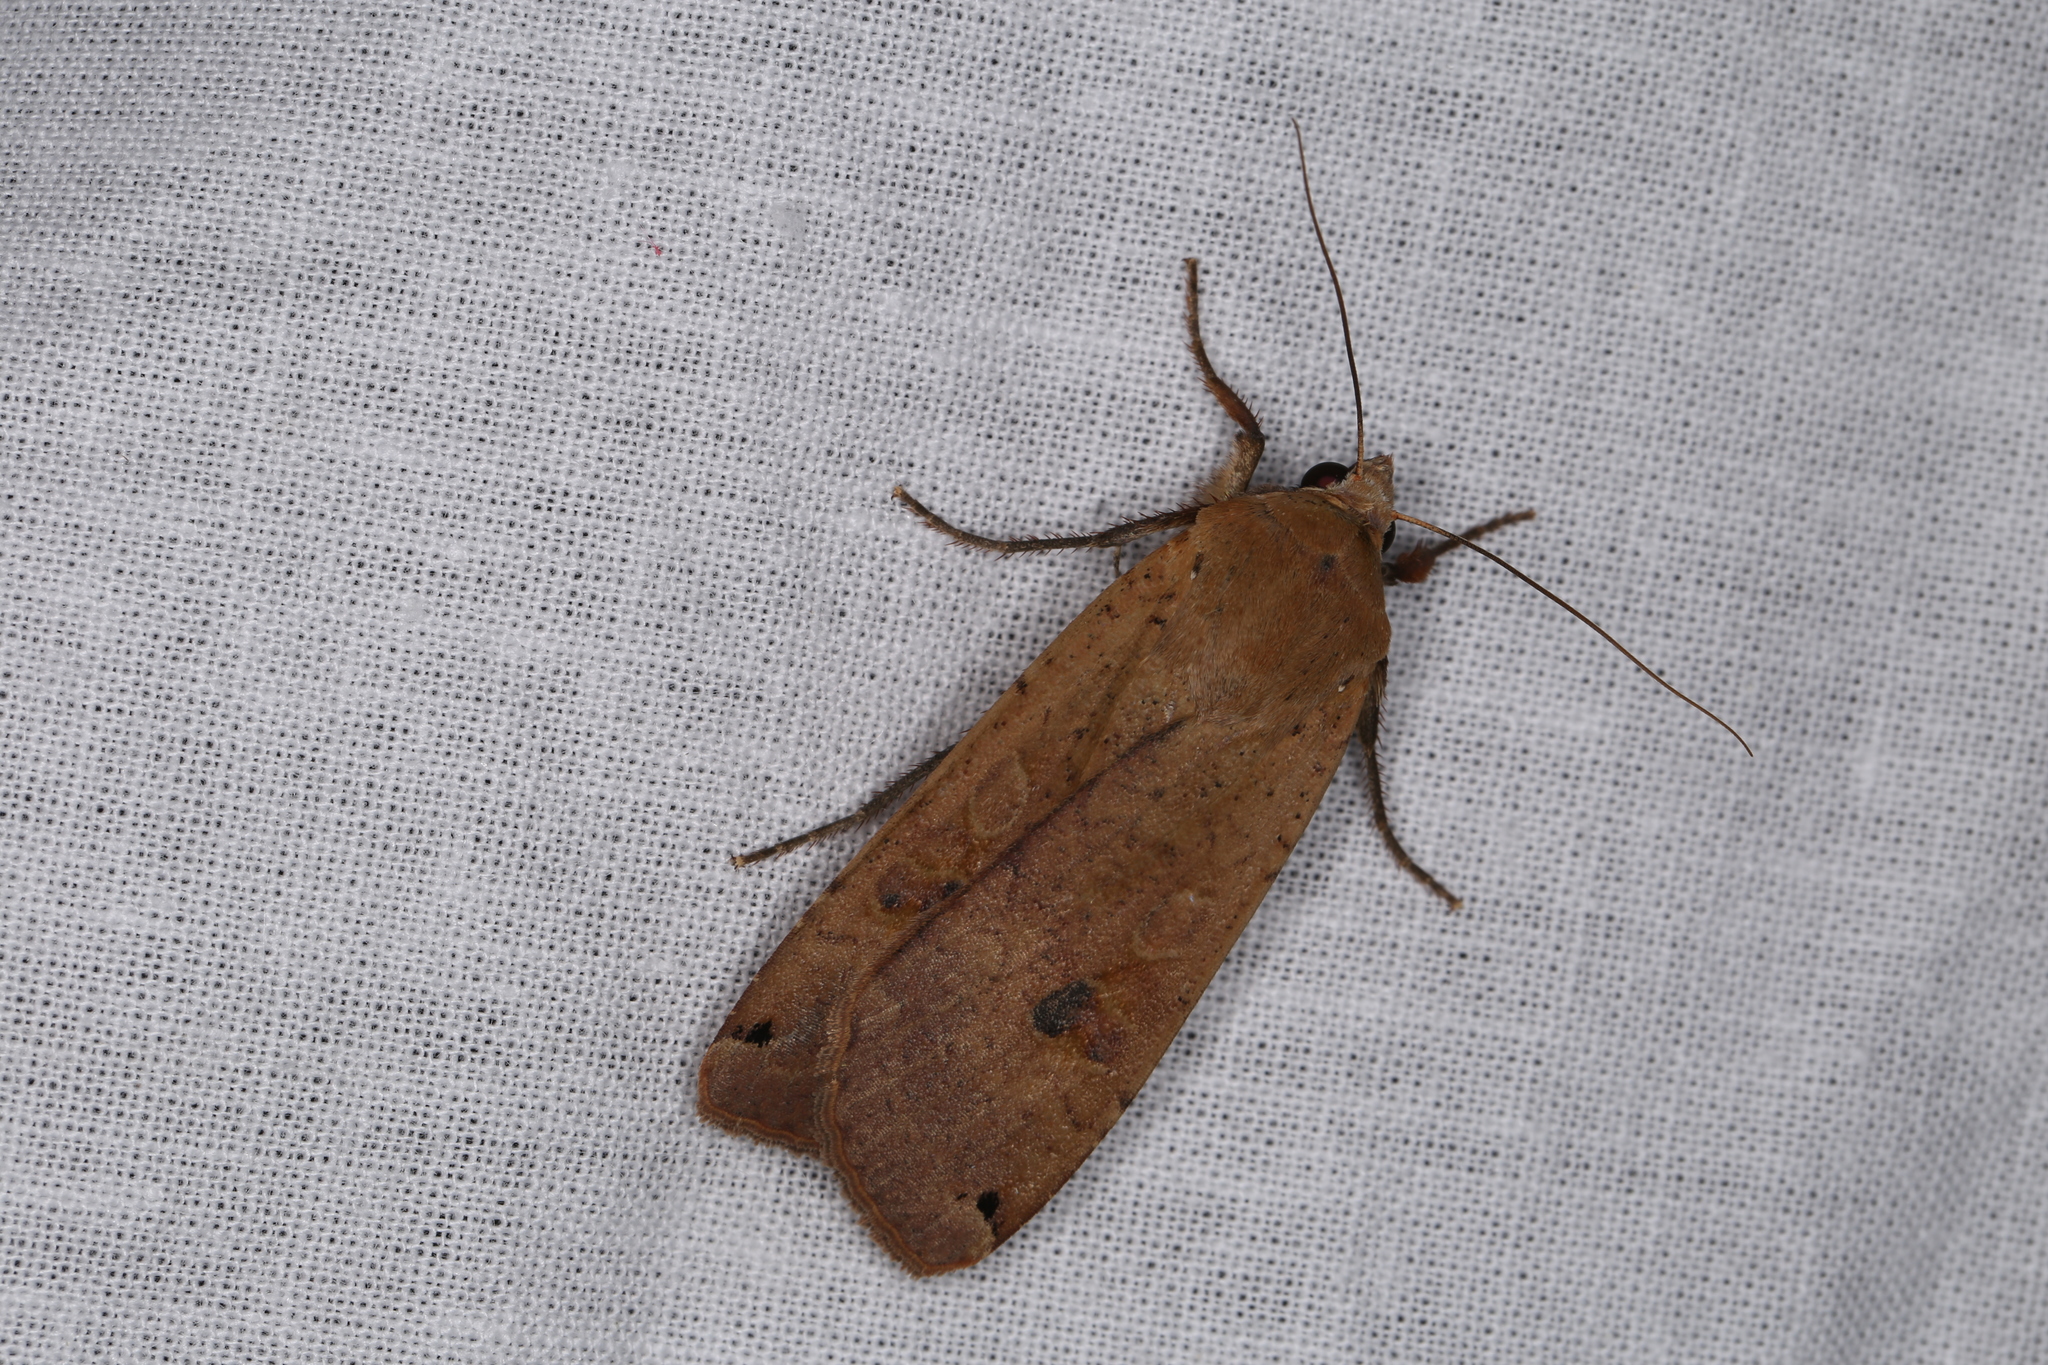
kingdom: Animalia
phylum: Arthropoda
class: Insecta
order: Lepidoptera
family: Noctuidae
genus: Noctua
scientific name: Noctua pronuba
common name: Large yellow underwing
